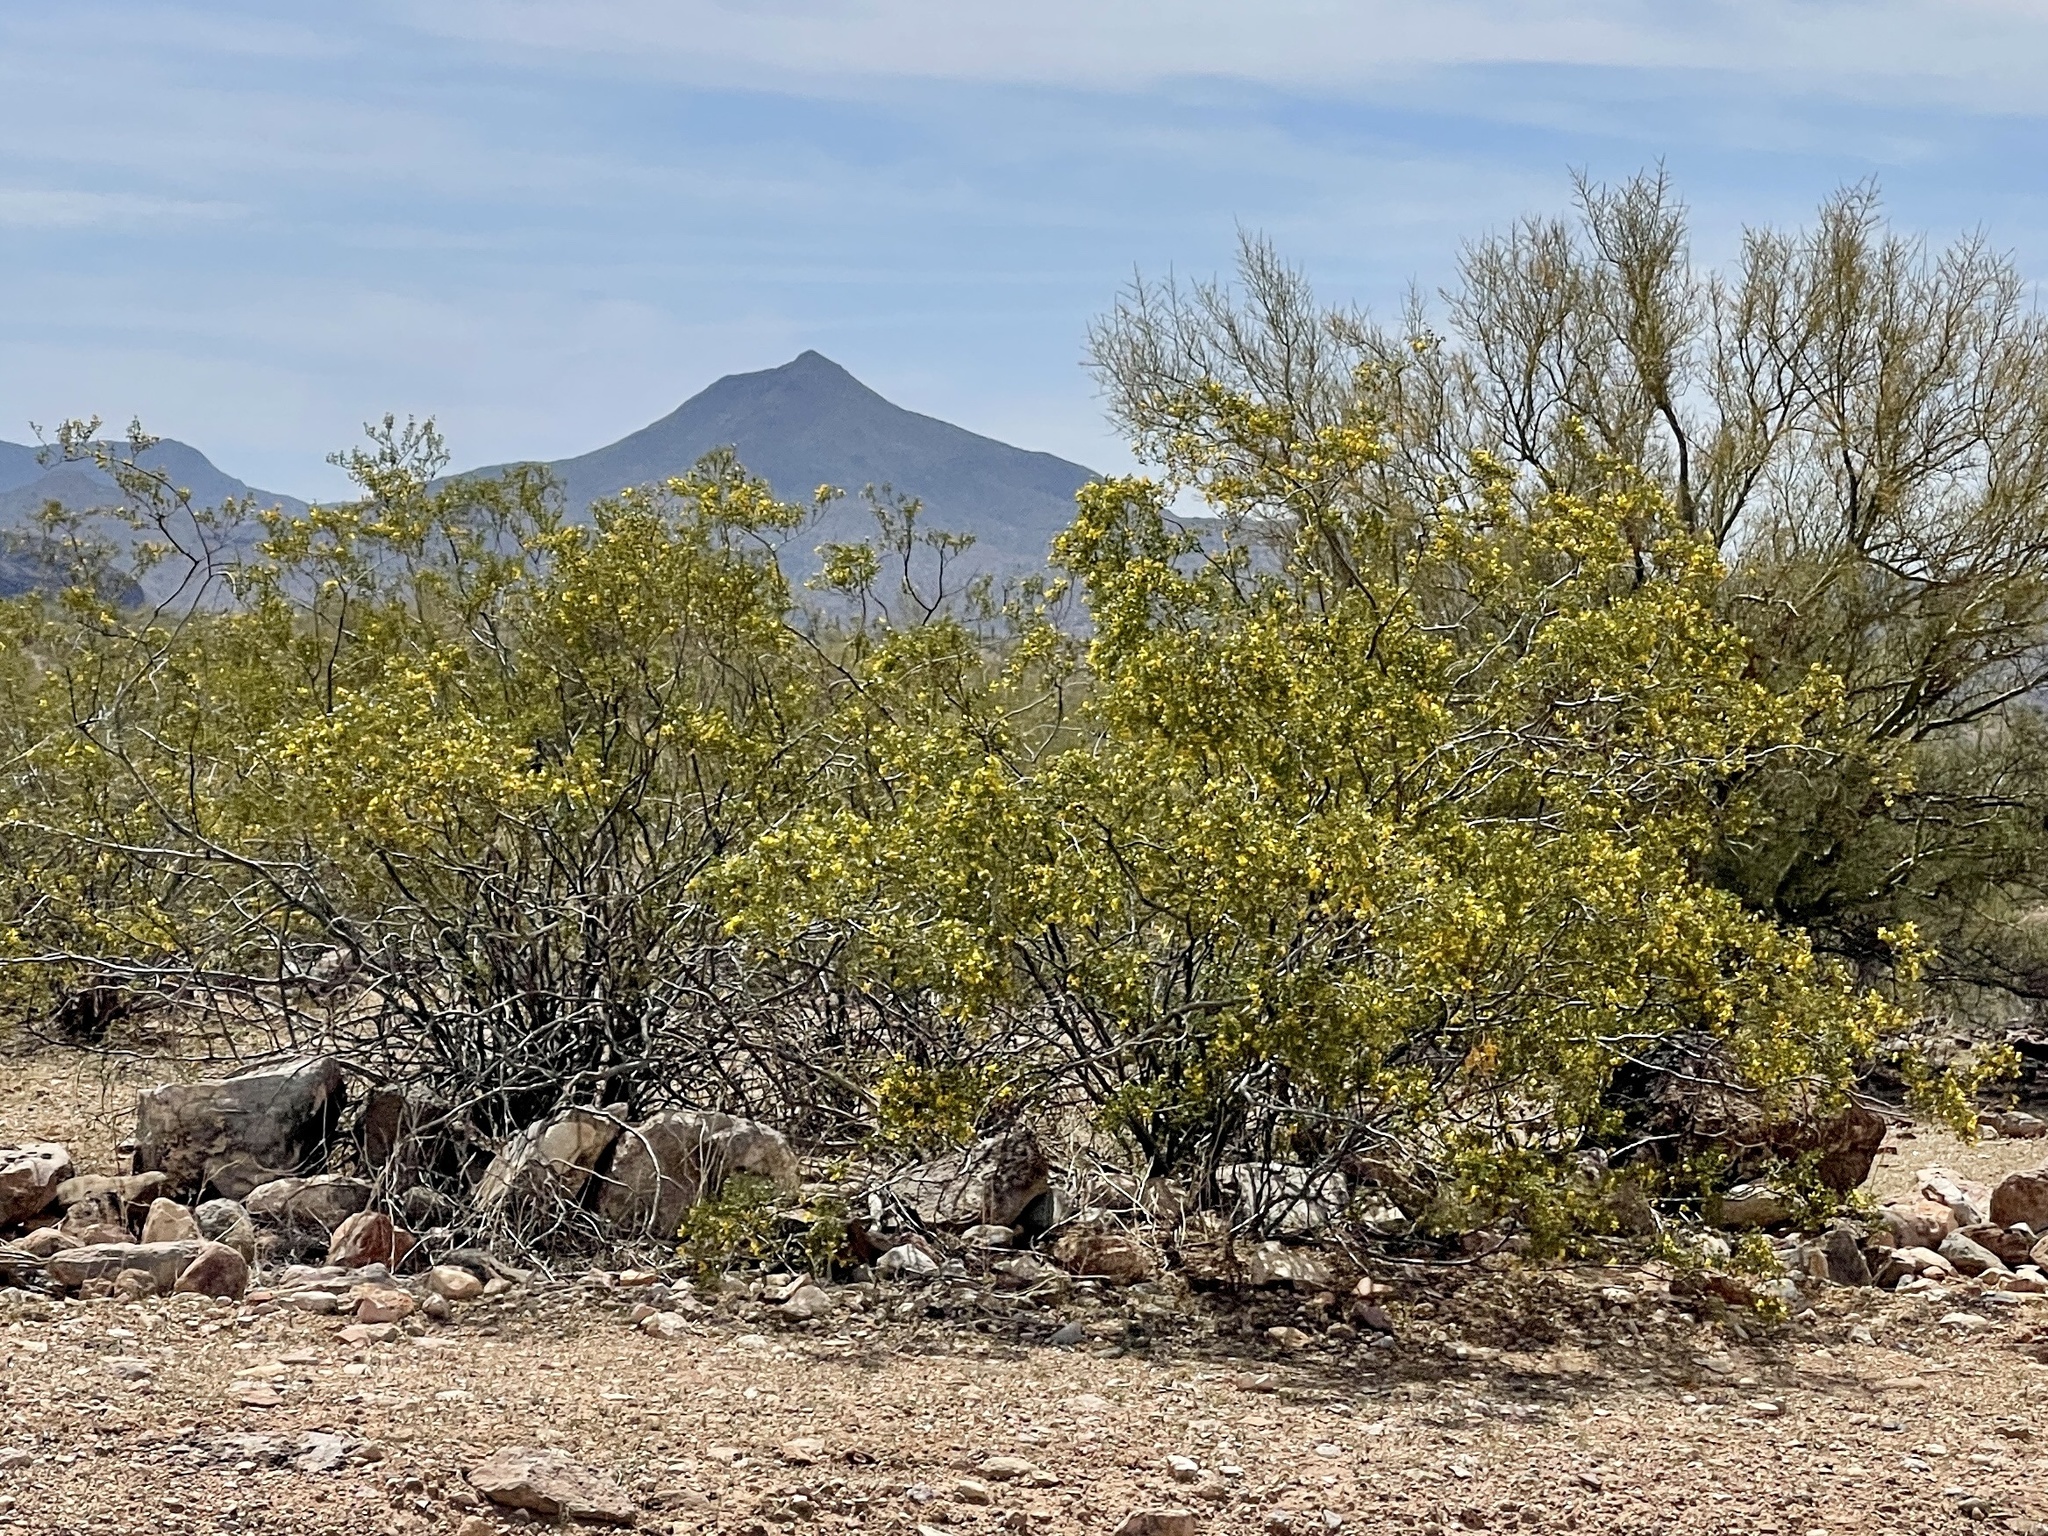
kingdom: Plantae
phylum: Tracheophyta
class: Magnoliopsida
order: Zygophyllales
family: Zygophyllaceae
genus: Larrea
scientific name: Larrea tridentata
